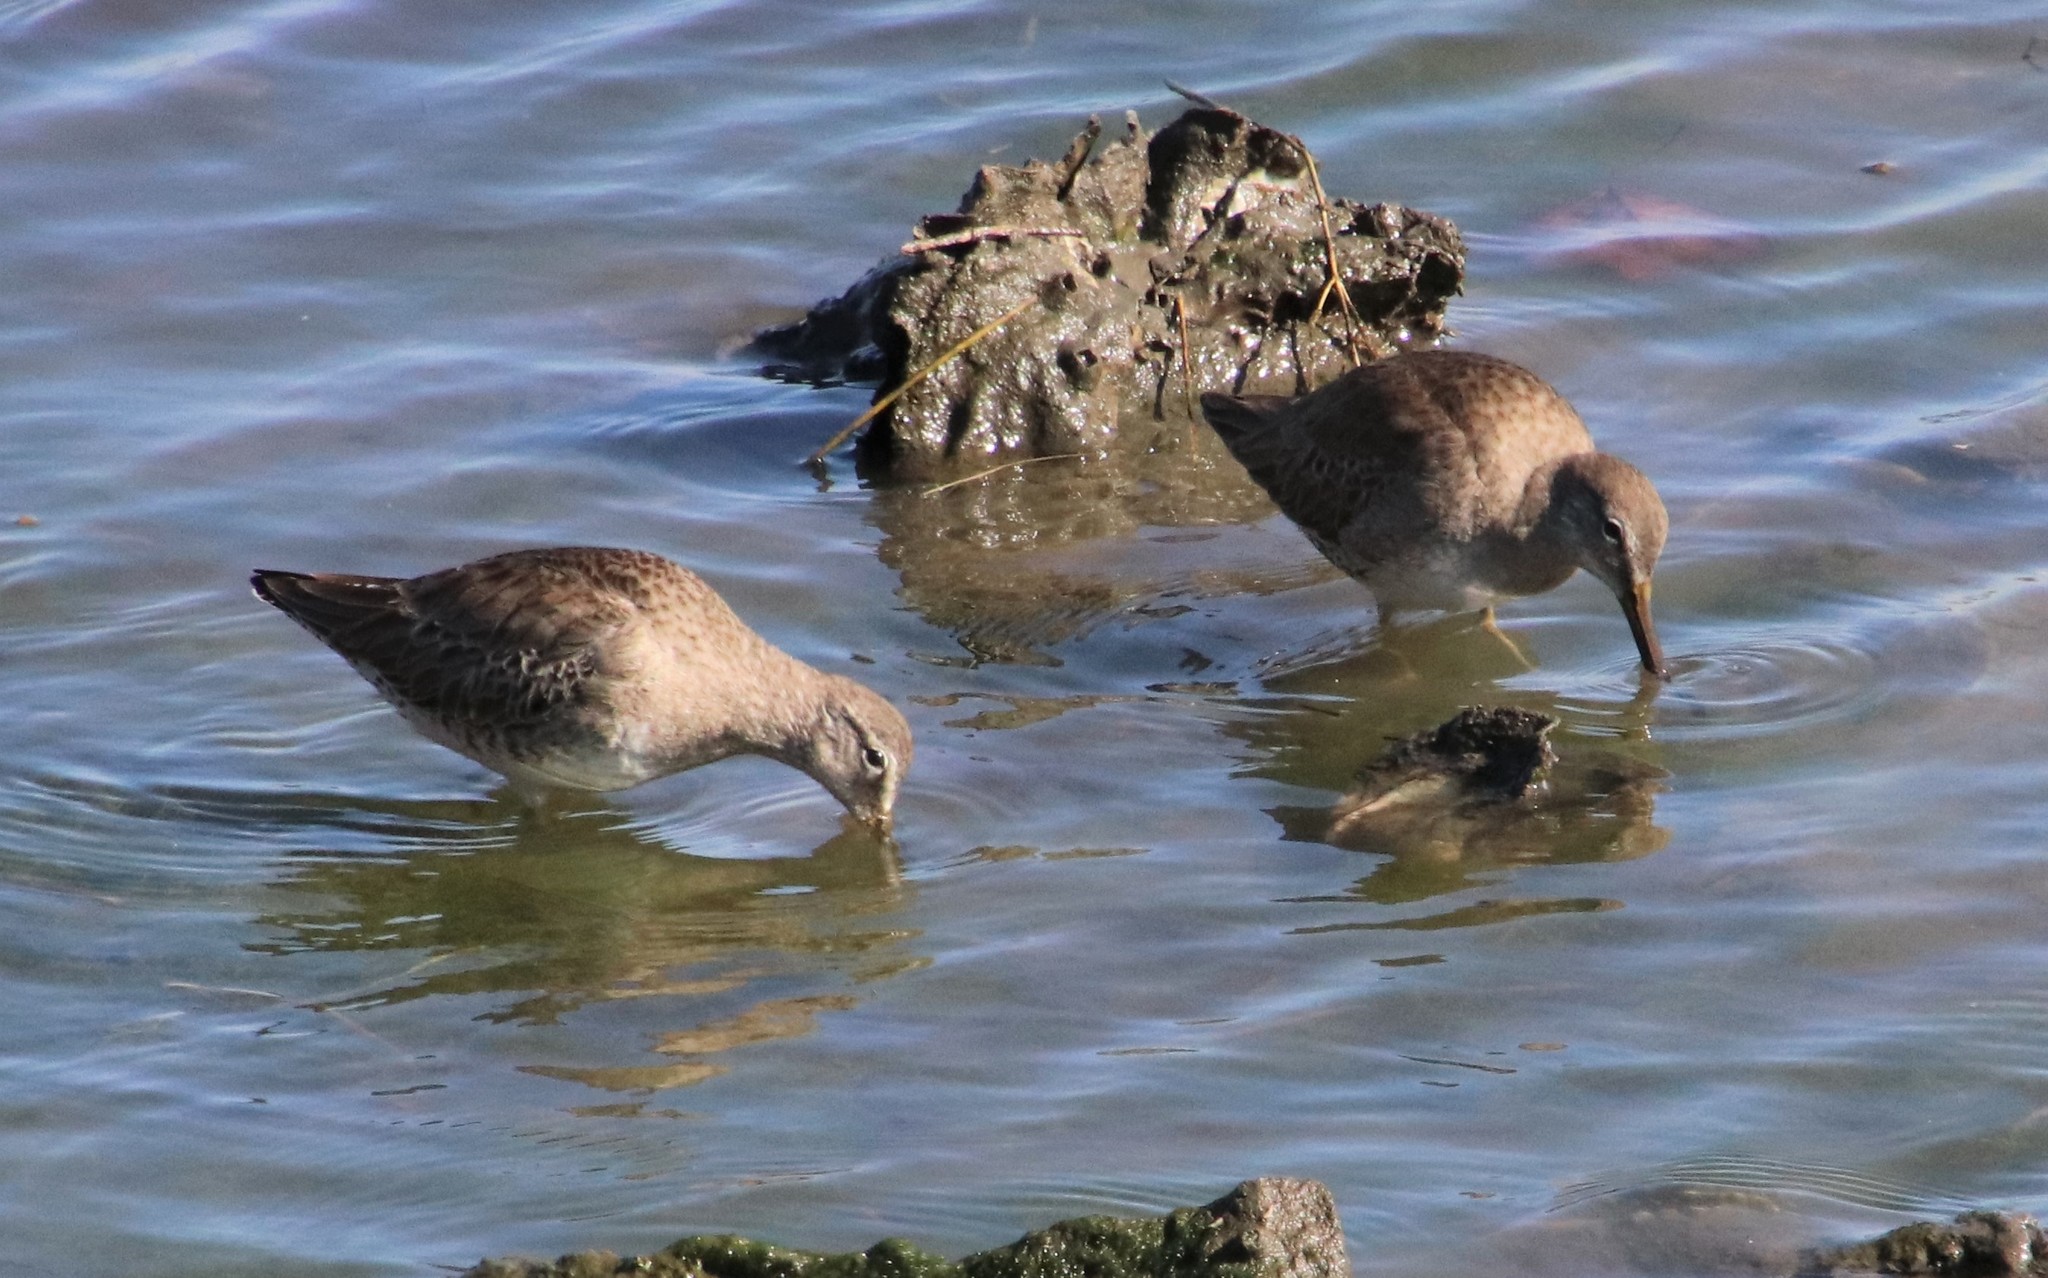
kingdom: Animalia
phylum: Chordata
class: Aves
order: Charadriiformes
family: Scolopacidae
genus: Limnodromus
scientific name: Limnodromus scolopaceus
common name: Long-billed dowitcher
